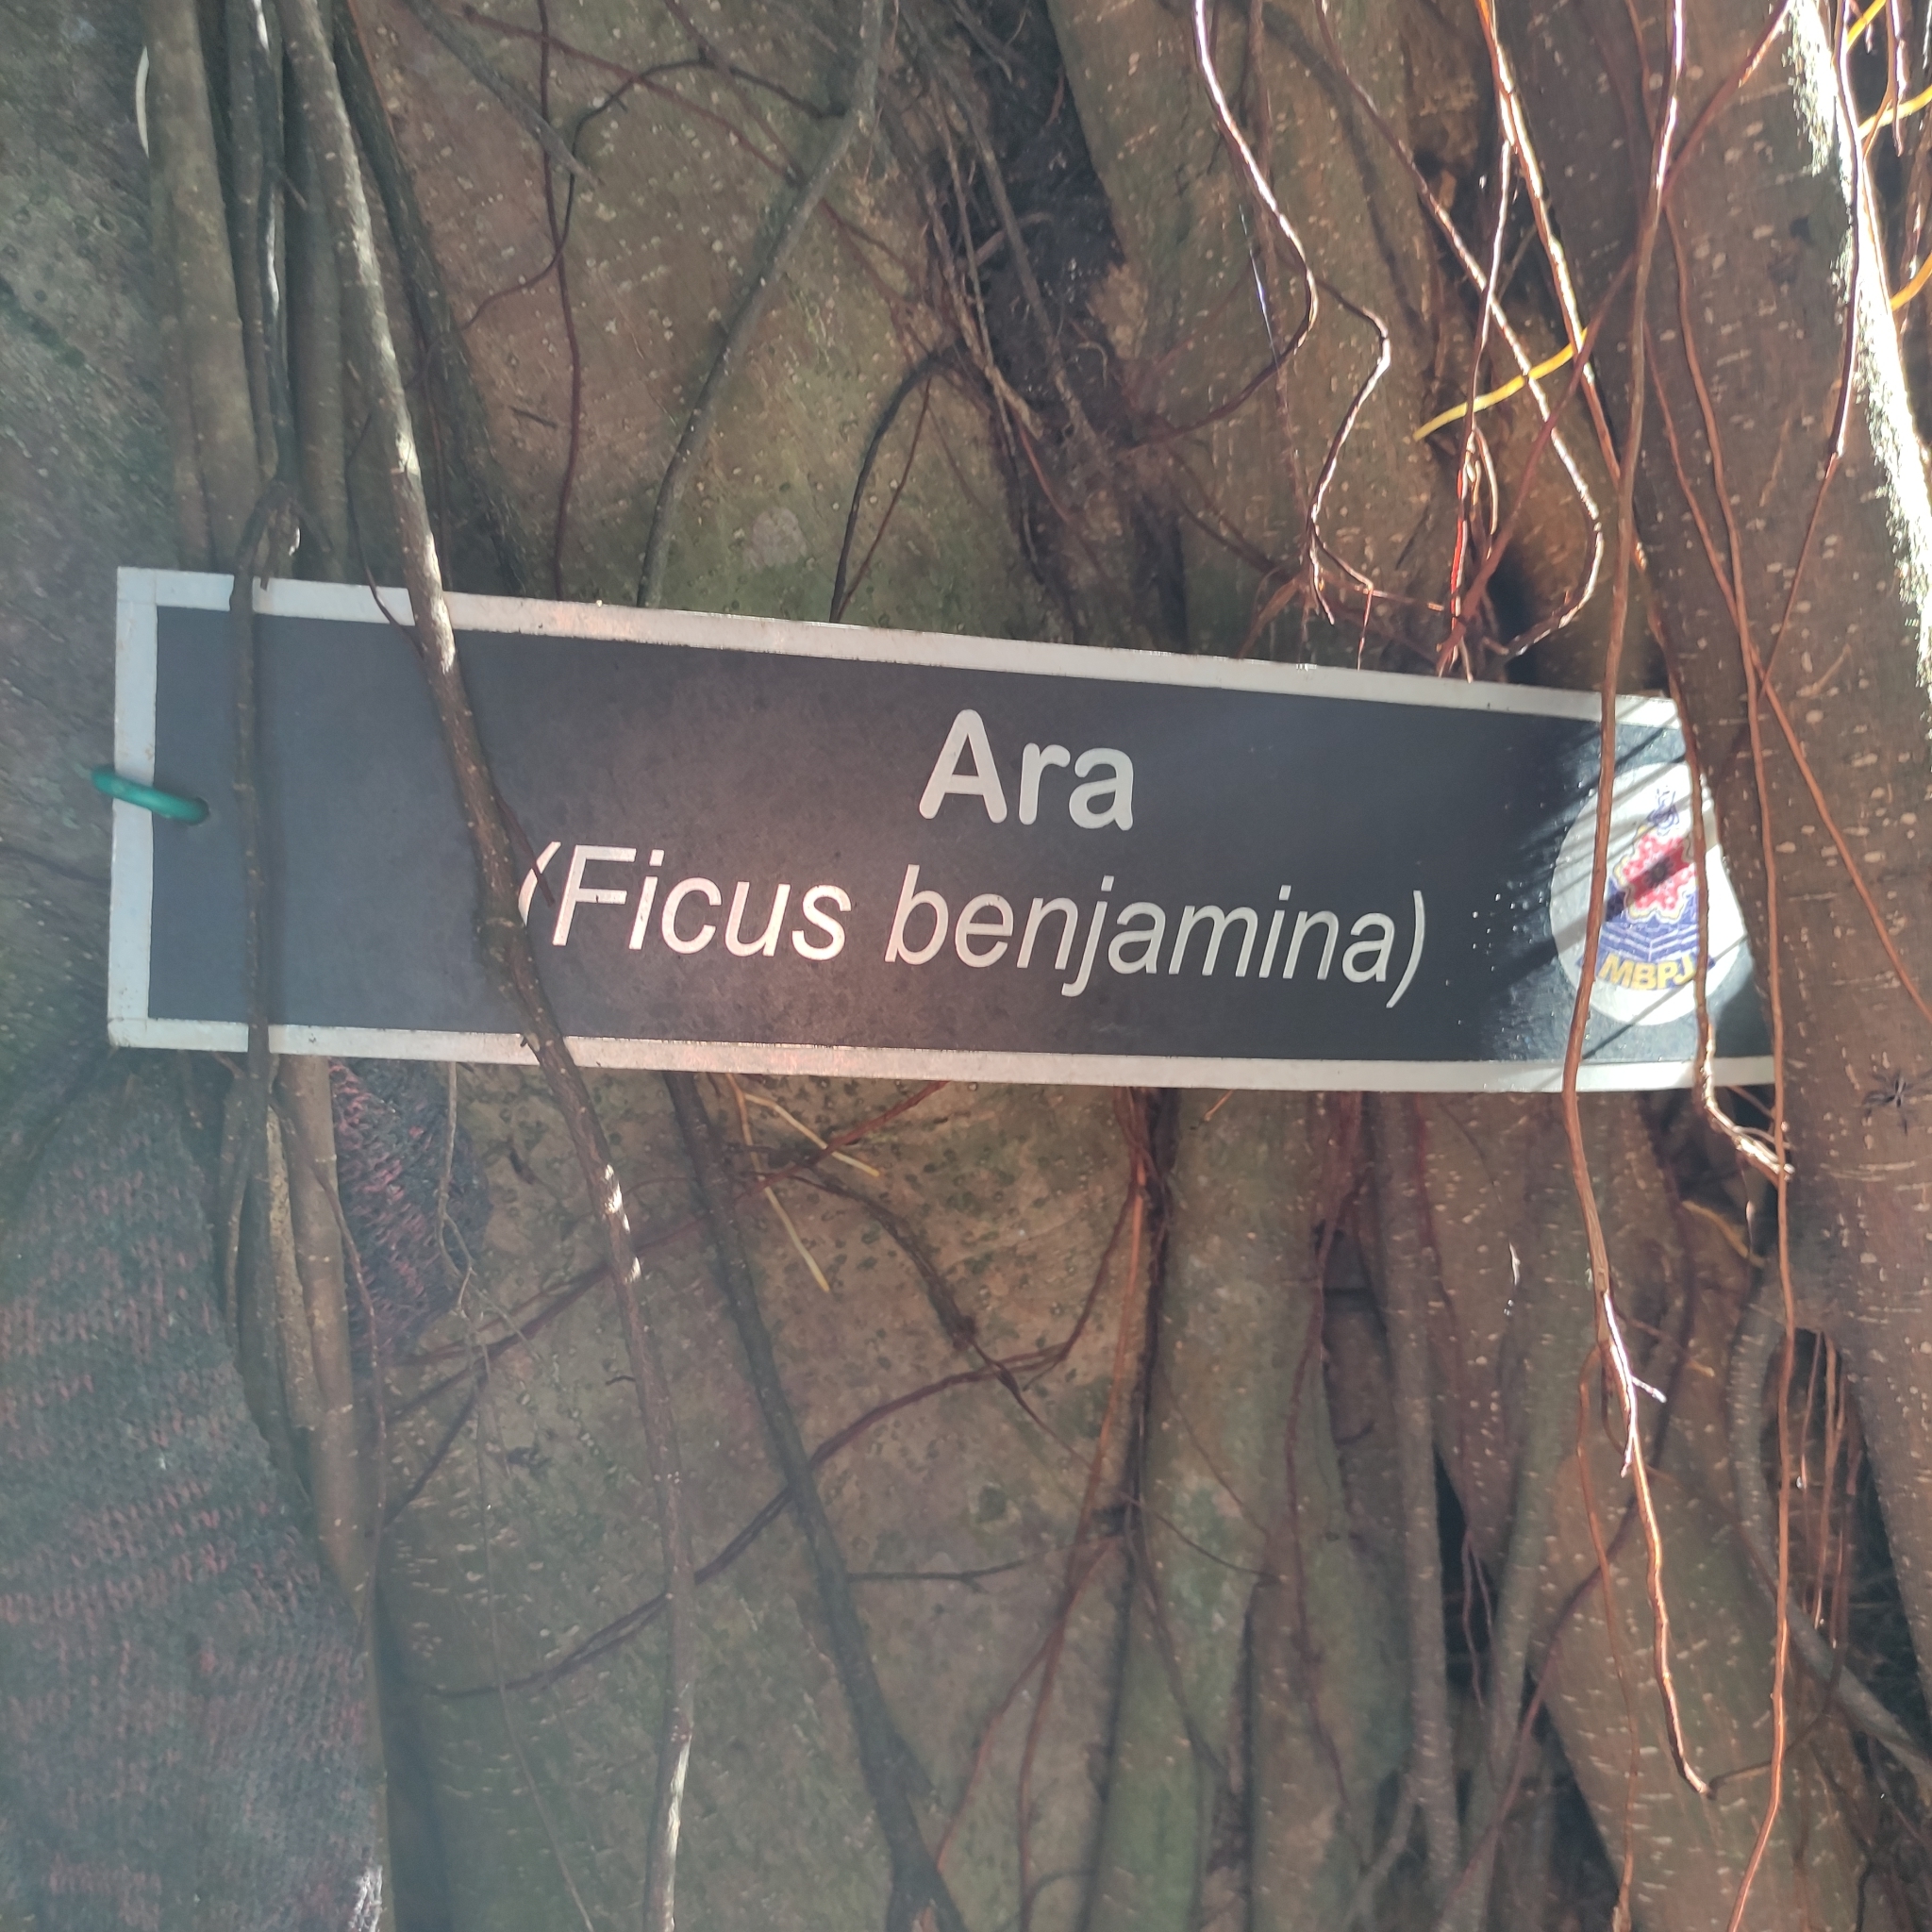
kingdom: Plantae
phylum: Tracheophyta
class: Magnoliopsida
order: Rosales
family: Moraceae
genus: Ficus
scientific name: Ficus benjamina
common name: Weeping fig
